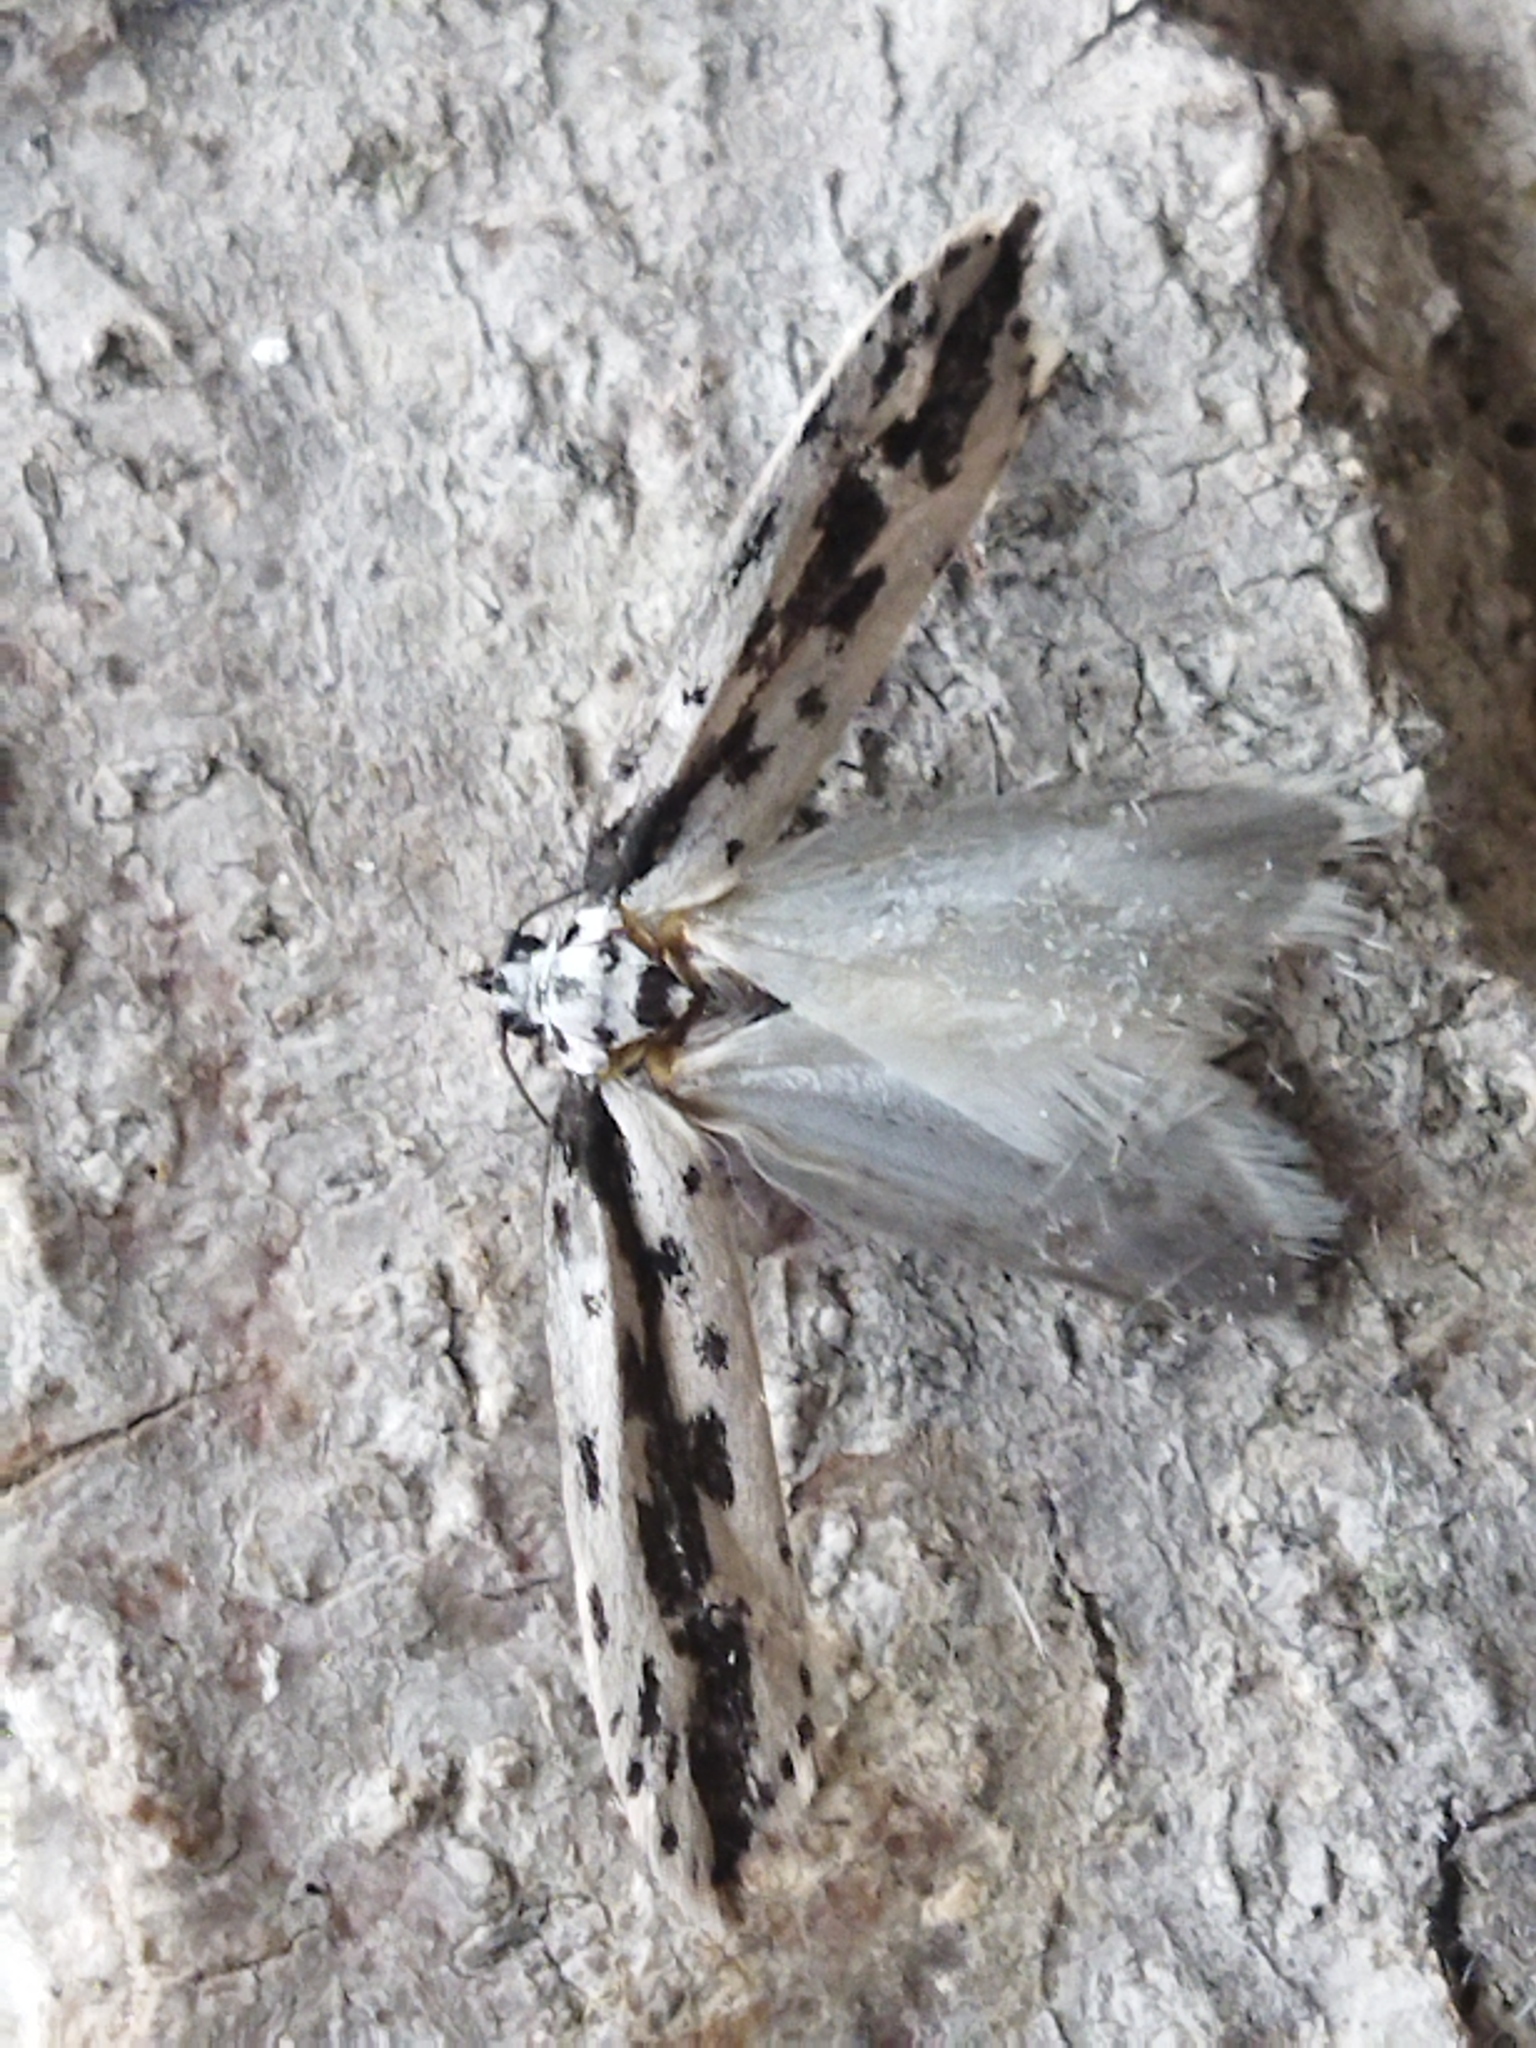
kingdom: Animalia
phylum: Arthropoda
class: Insecta
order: Lepidoptera
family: Ethmiidae
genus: Ethmia
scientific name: Ethmia fumidella
